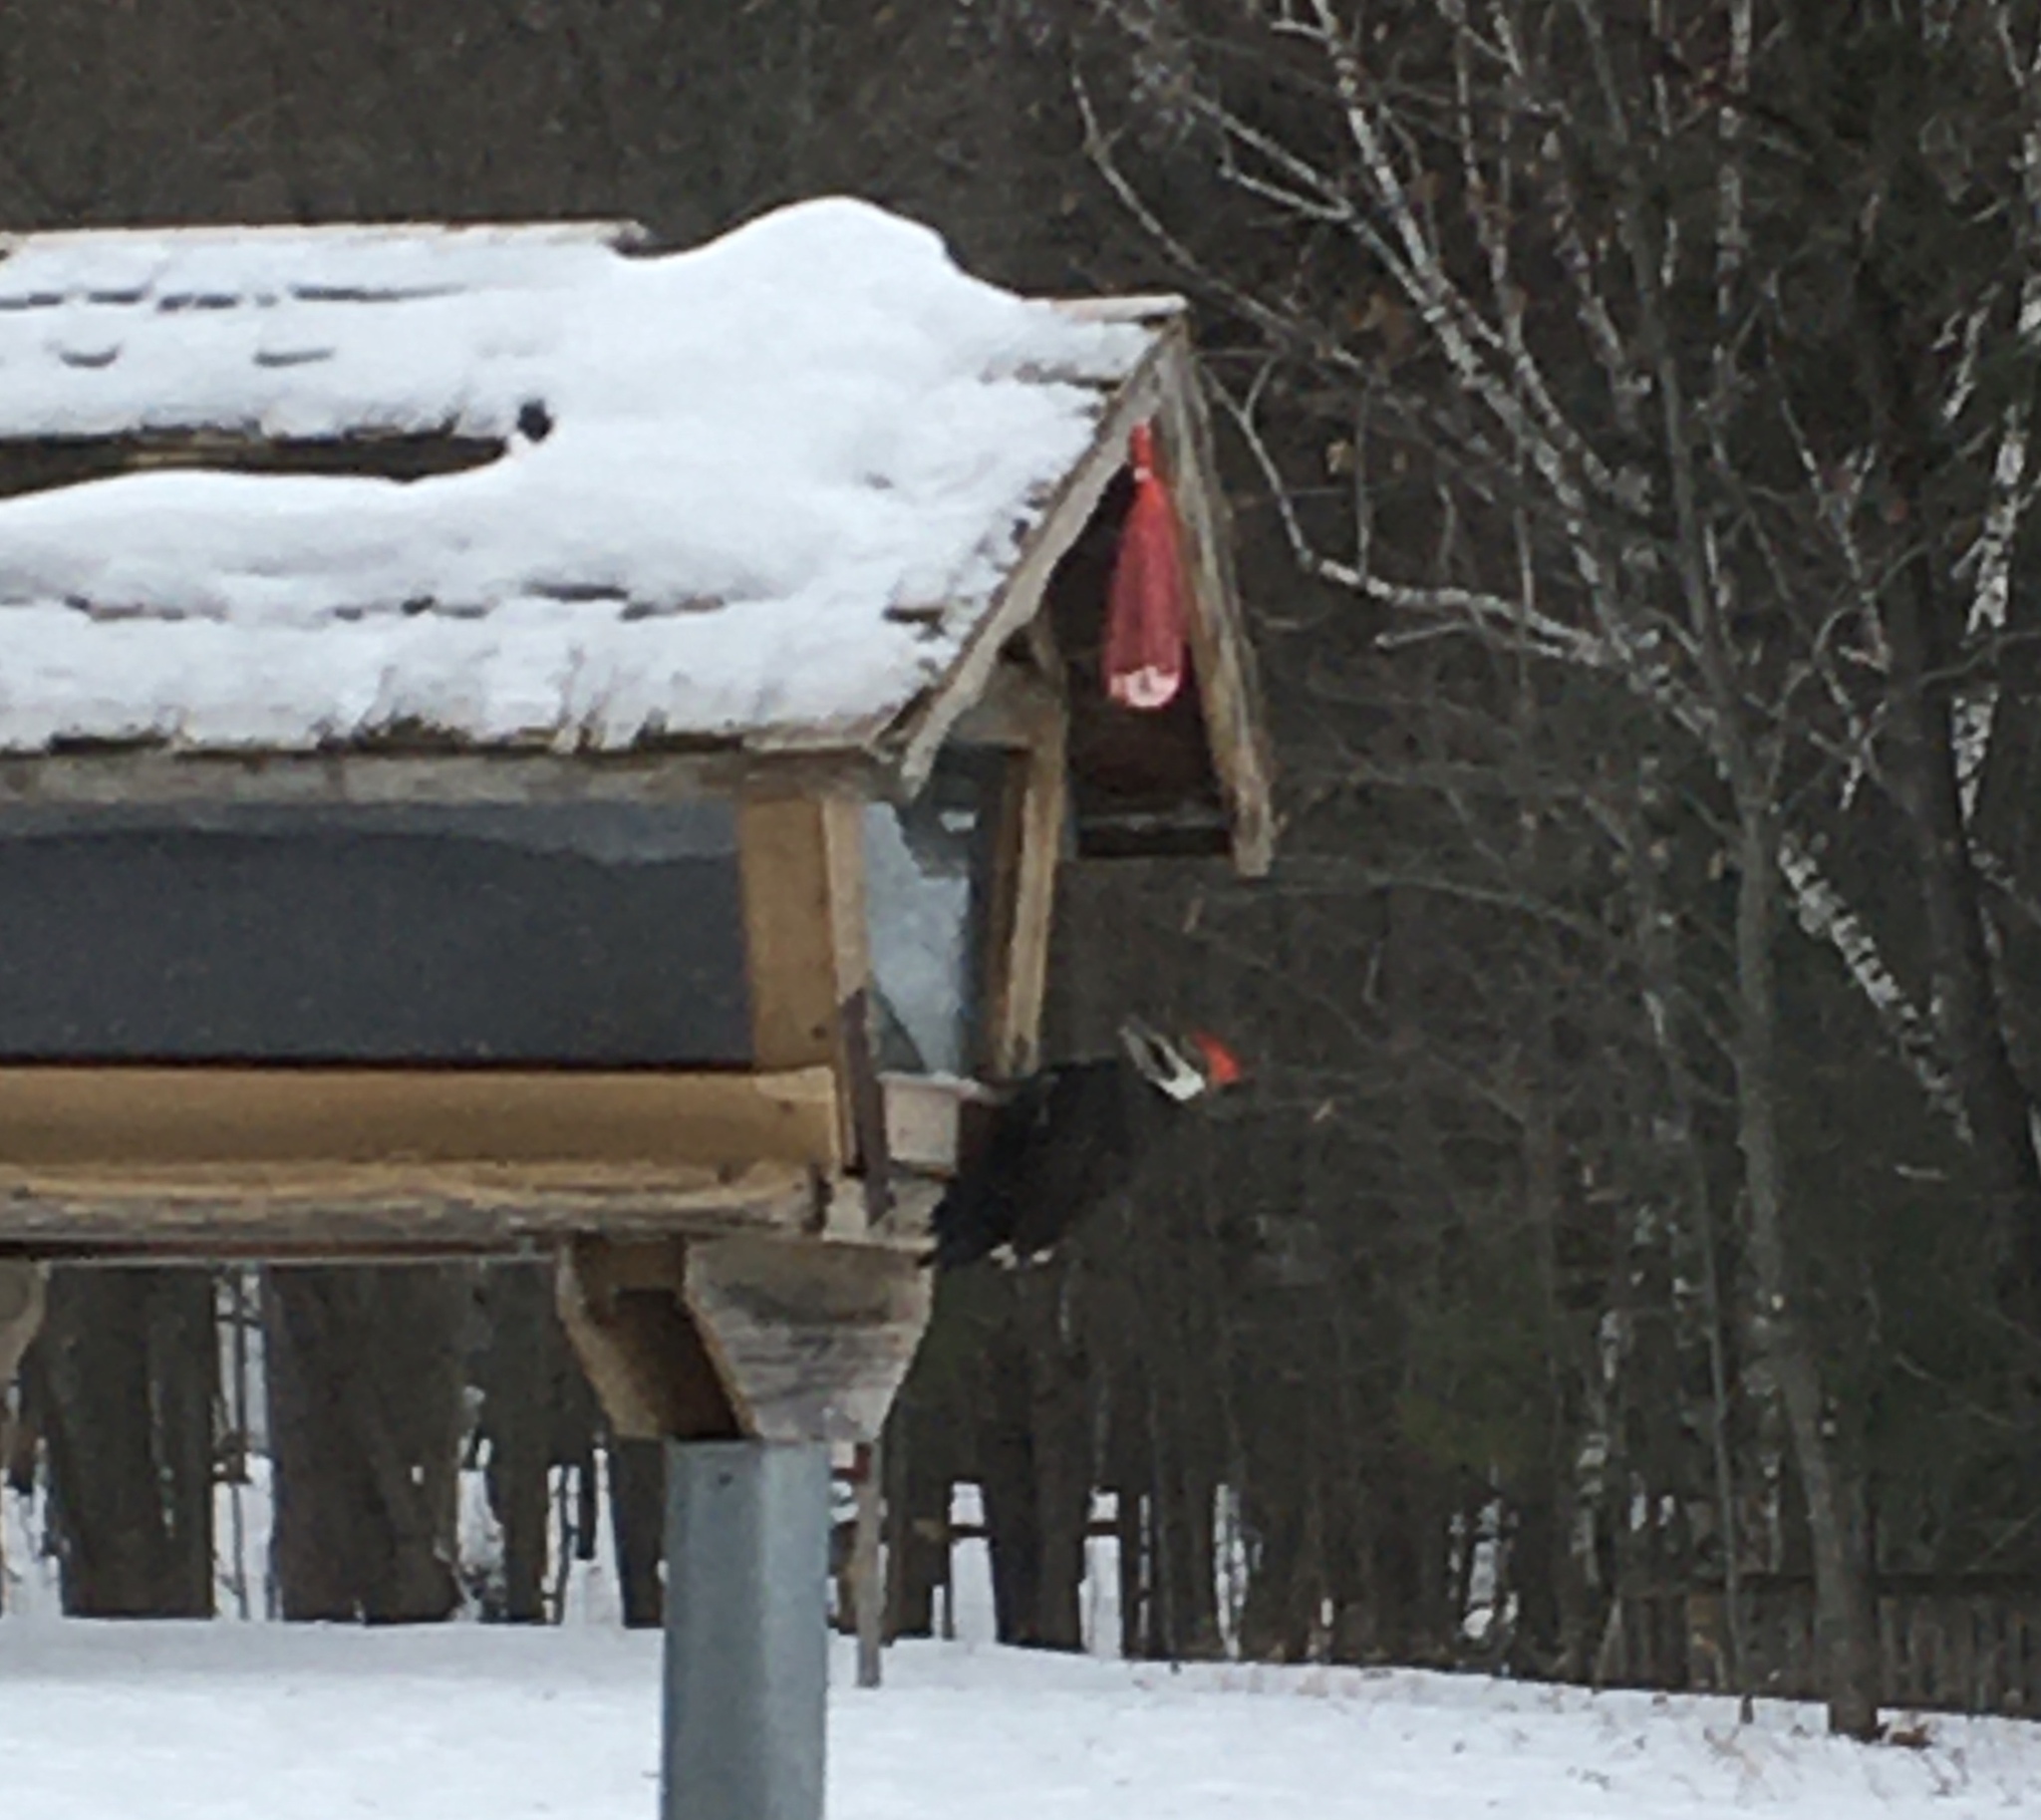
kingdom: Animalia
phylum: Chordata
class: Aves
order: Piciformes
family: Picidae
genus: Dryocopus
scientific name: Dryocopus pileatus
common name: Pileated woodpecker
